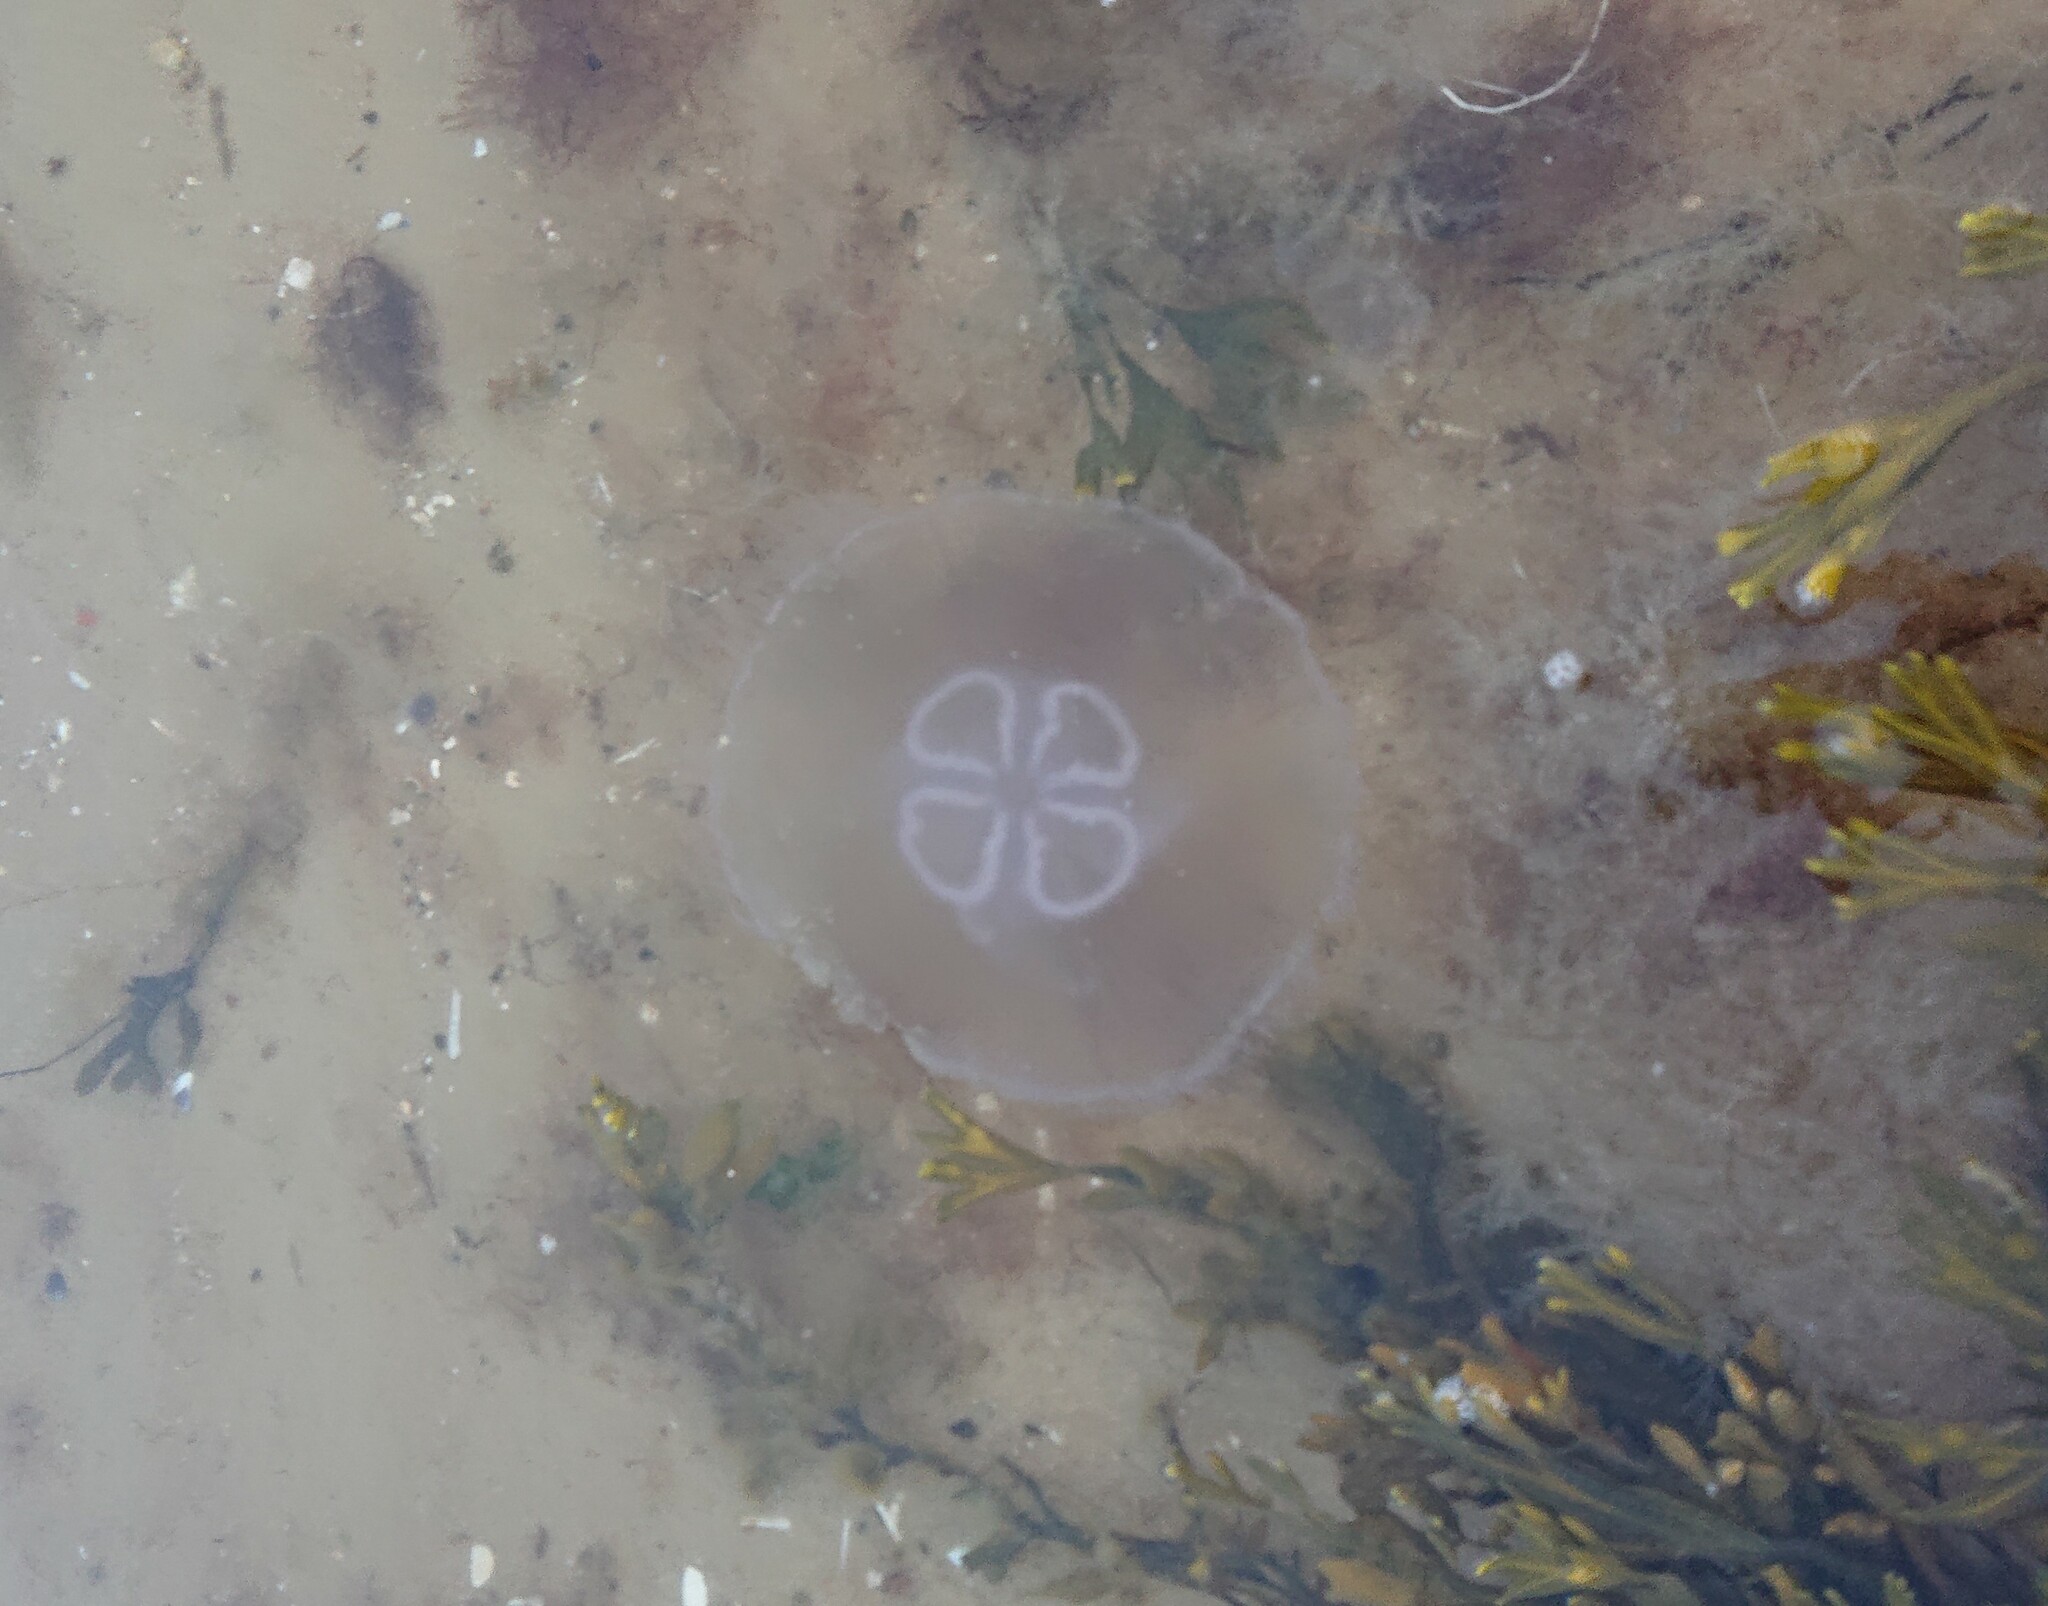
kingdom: Animalia
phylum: Cnidaria
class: Scyphozoa
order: Semaeostomeae
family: Ulmaridae
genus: Aurelia
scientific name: Aurelia aurita
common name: Moon jellyfish
